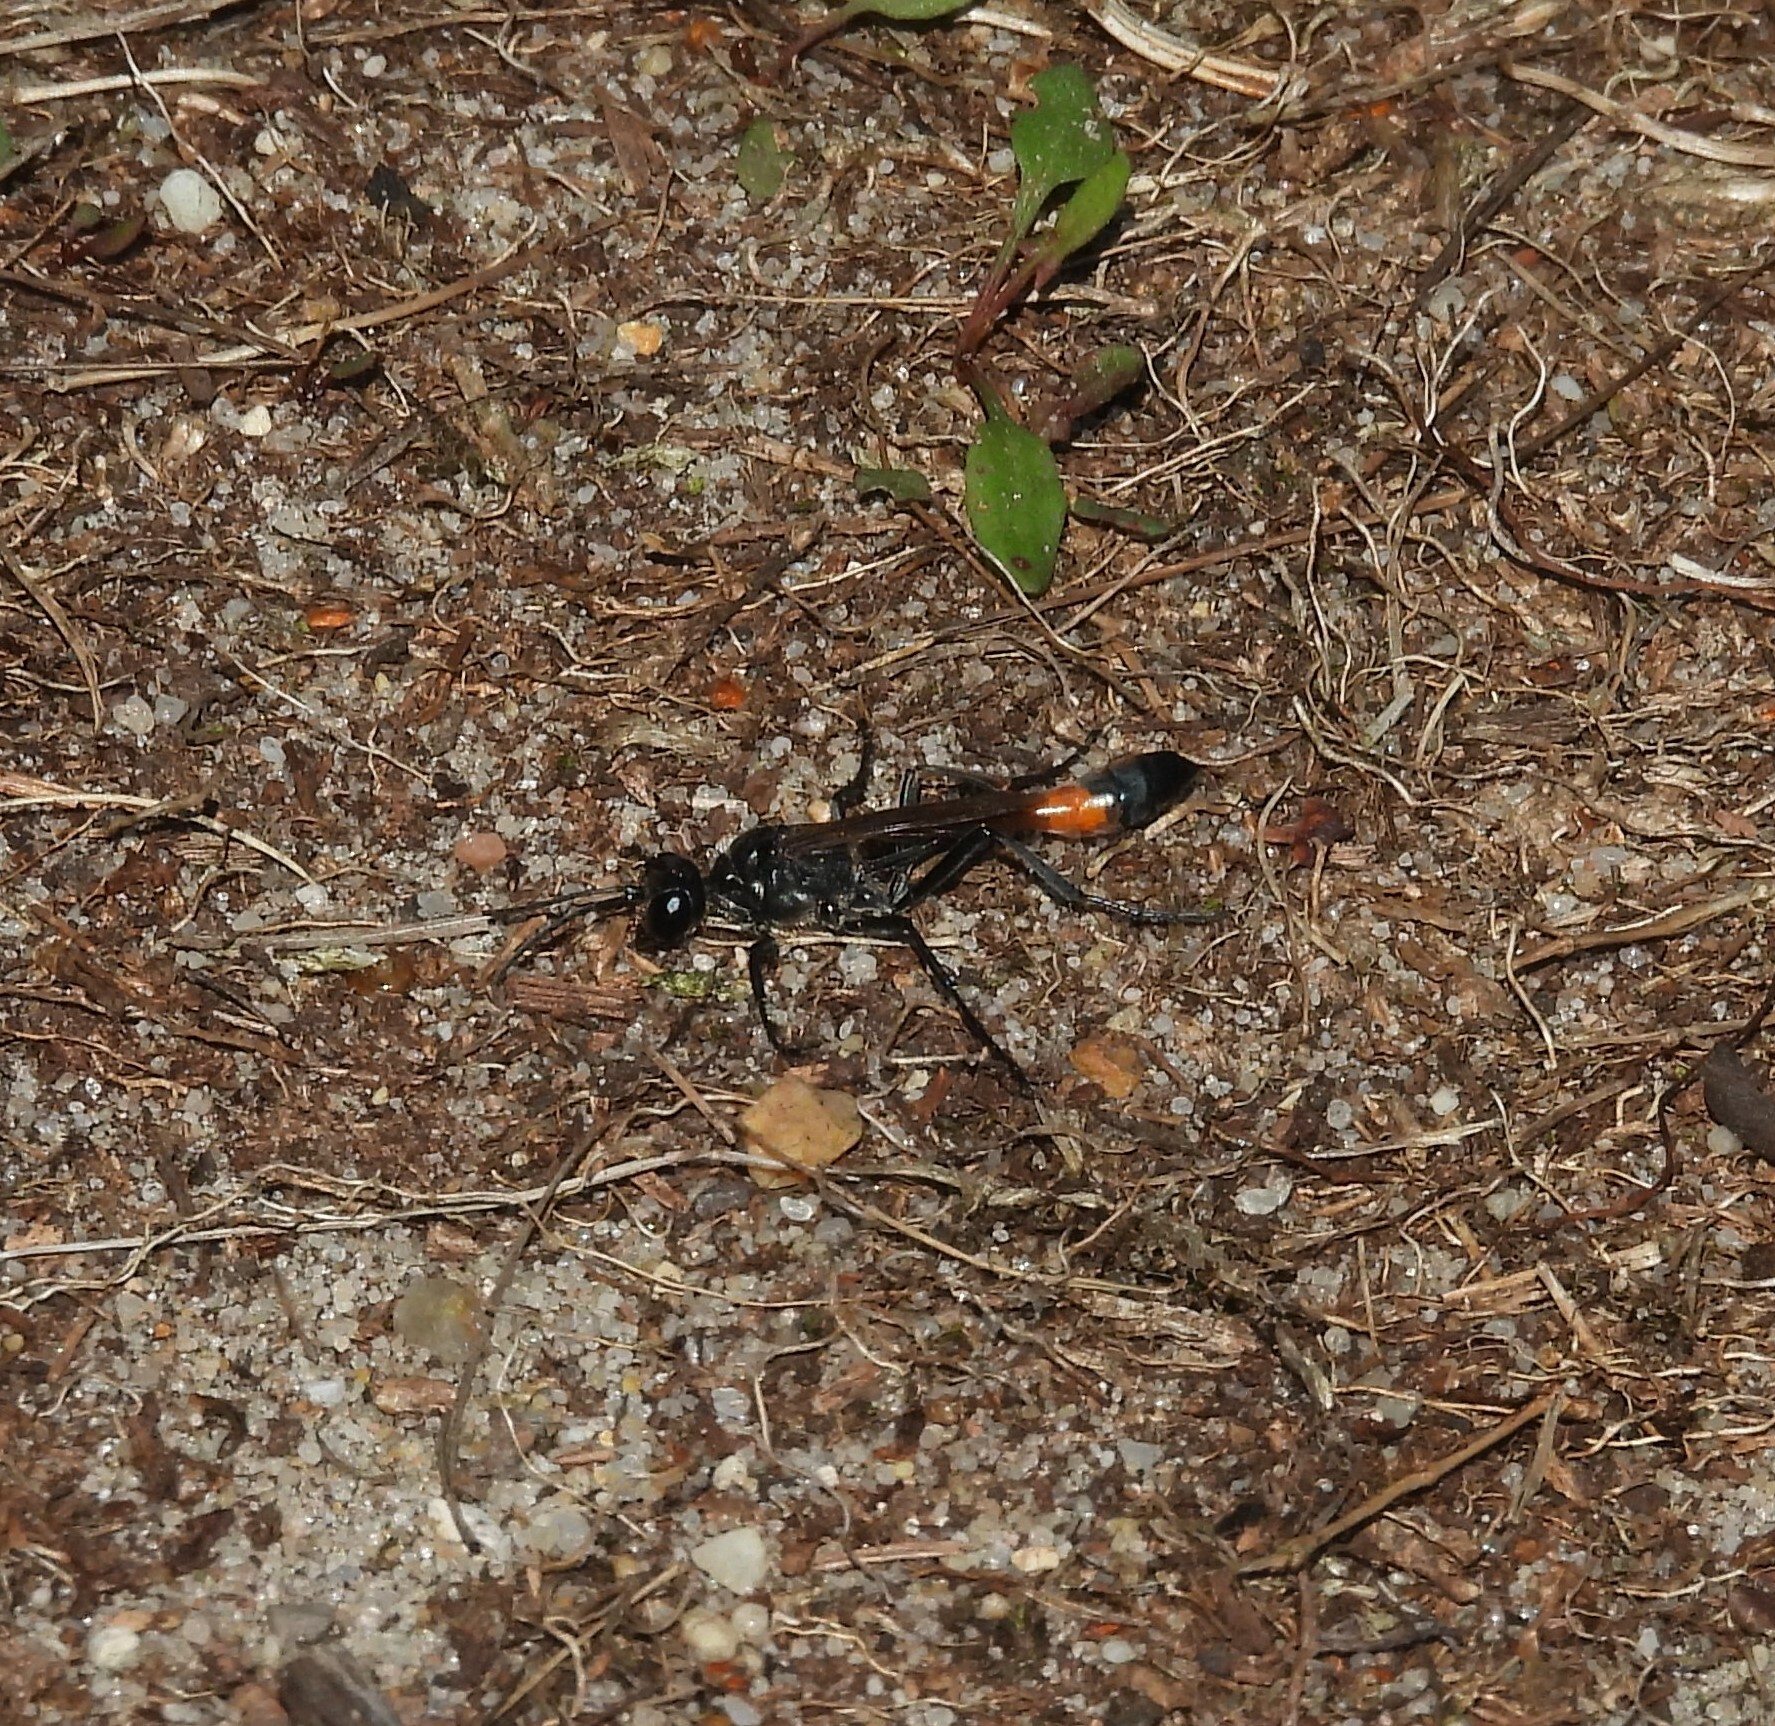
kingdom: Animalia
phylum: Arthropoda
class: Insecta
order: Hymenoptera
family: Sphecidae
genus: Ammophila
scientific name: Ammophila sabulosa
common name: Red banded sand wasp
